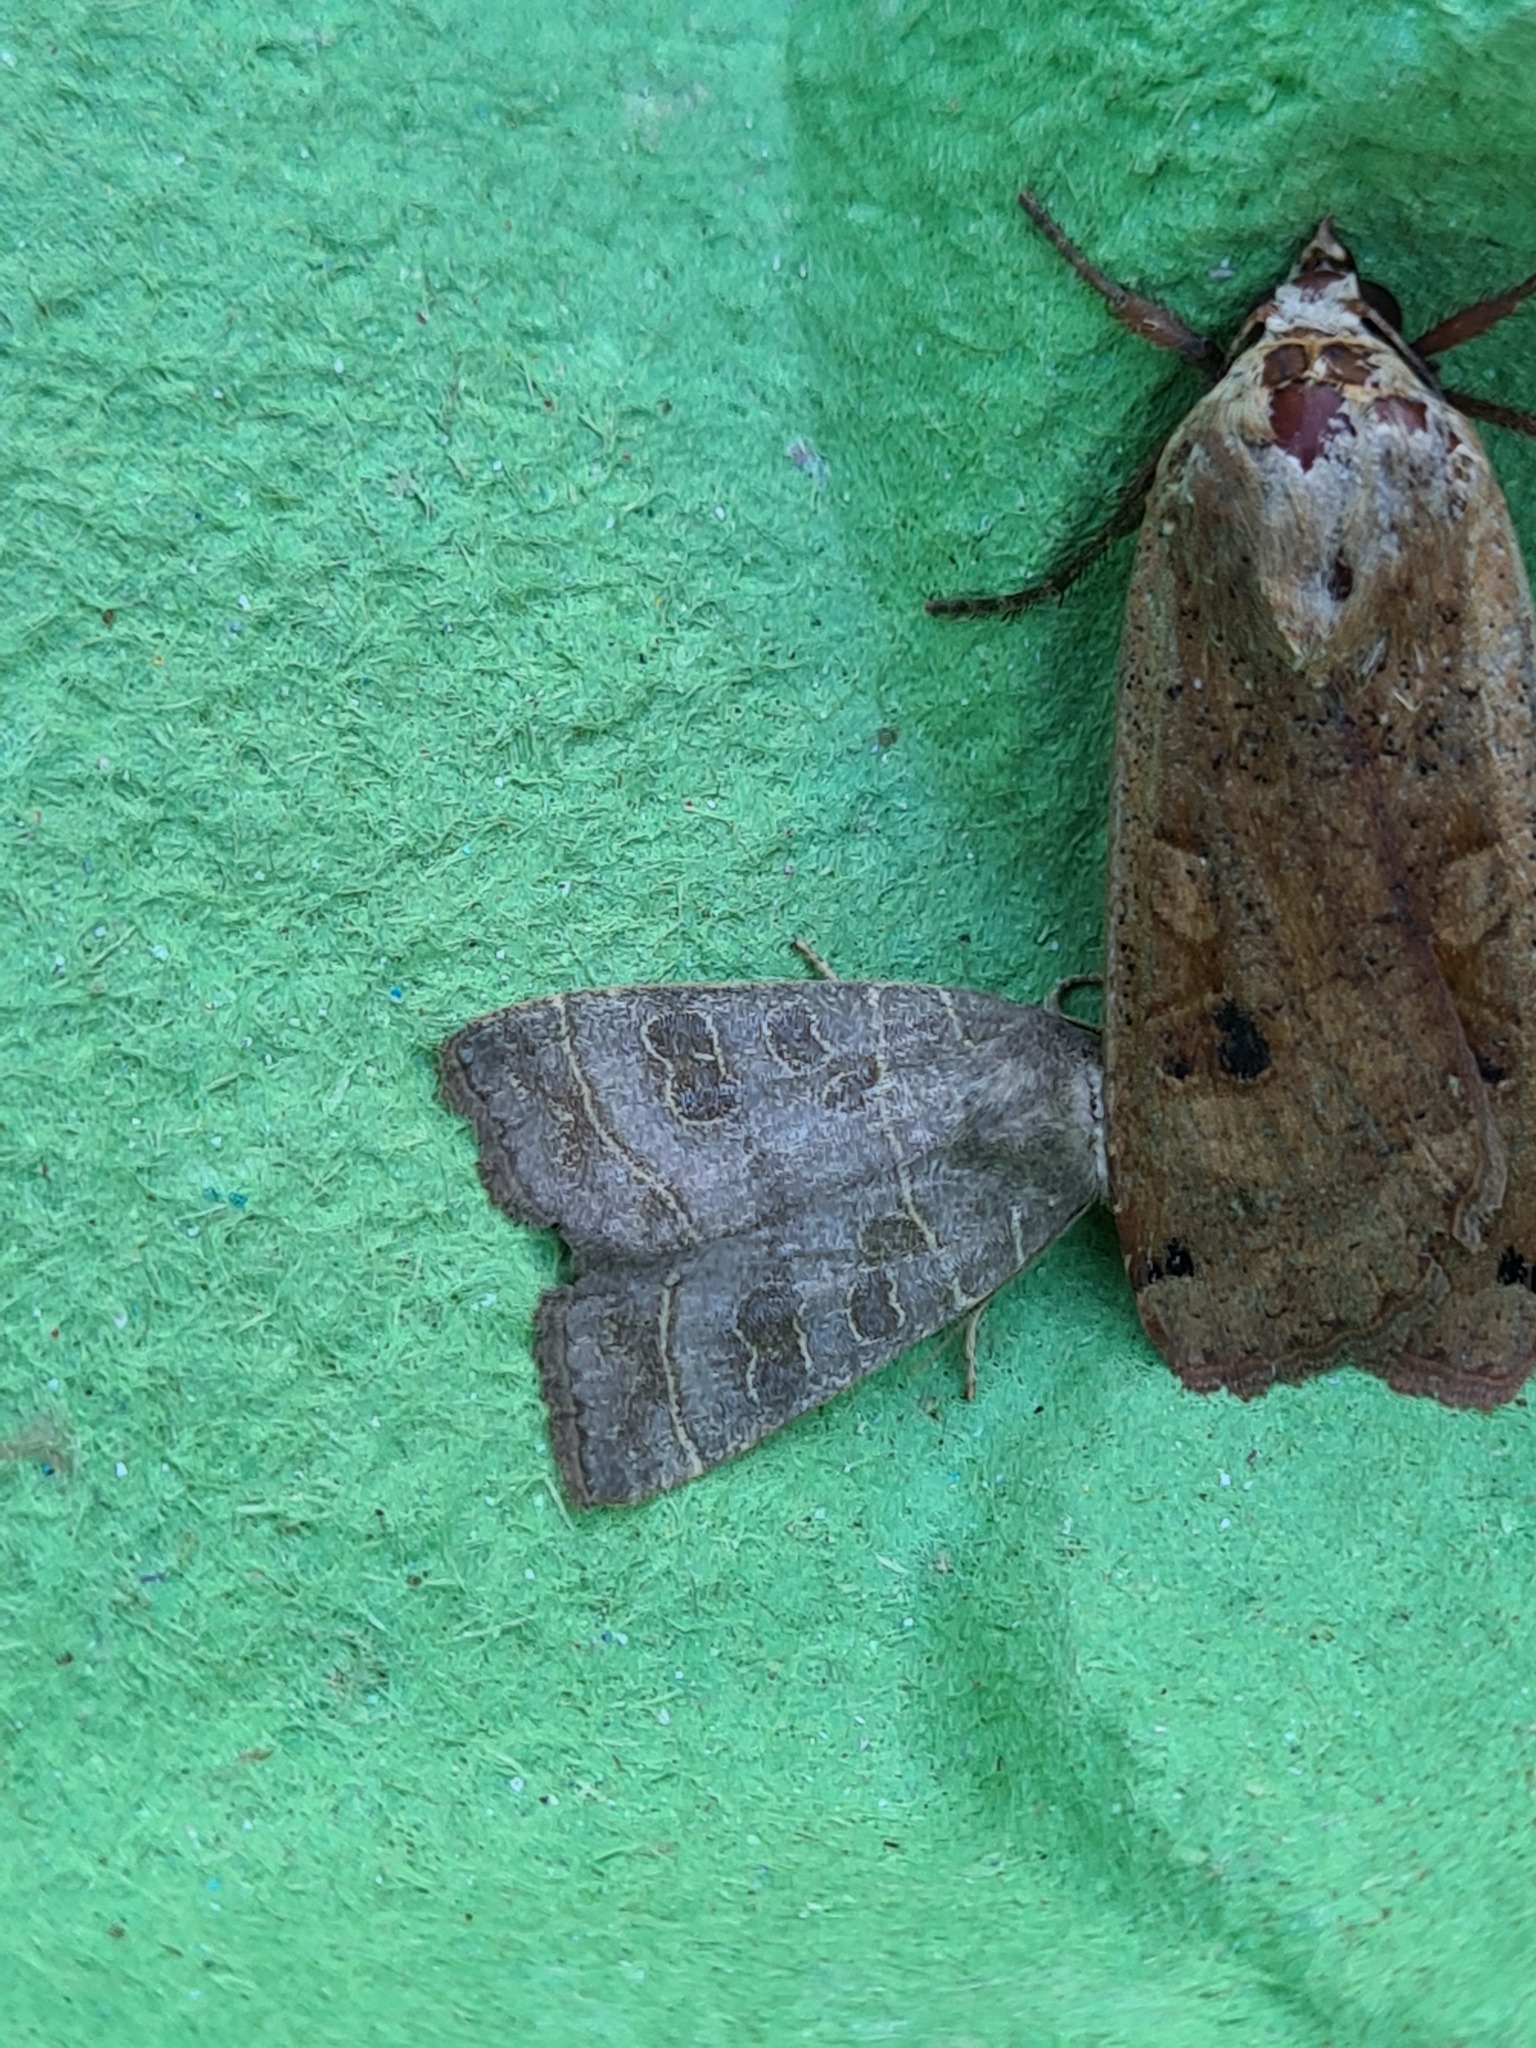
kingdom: Animalia
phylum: Arthropoda
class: Insecta
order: Lepidoptera
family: Noctuidae
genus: Ipimorpha
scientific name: Ipimorpha subtusa
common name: Olive
